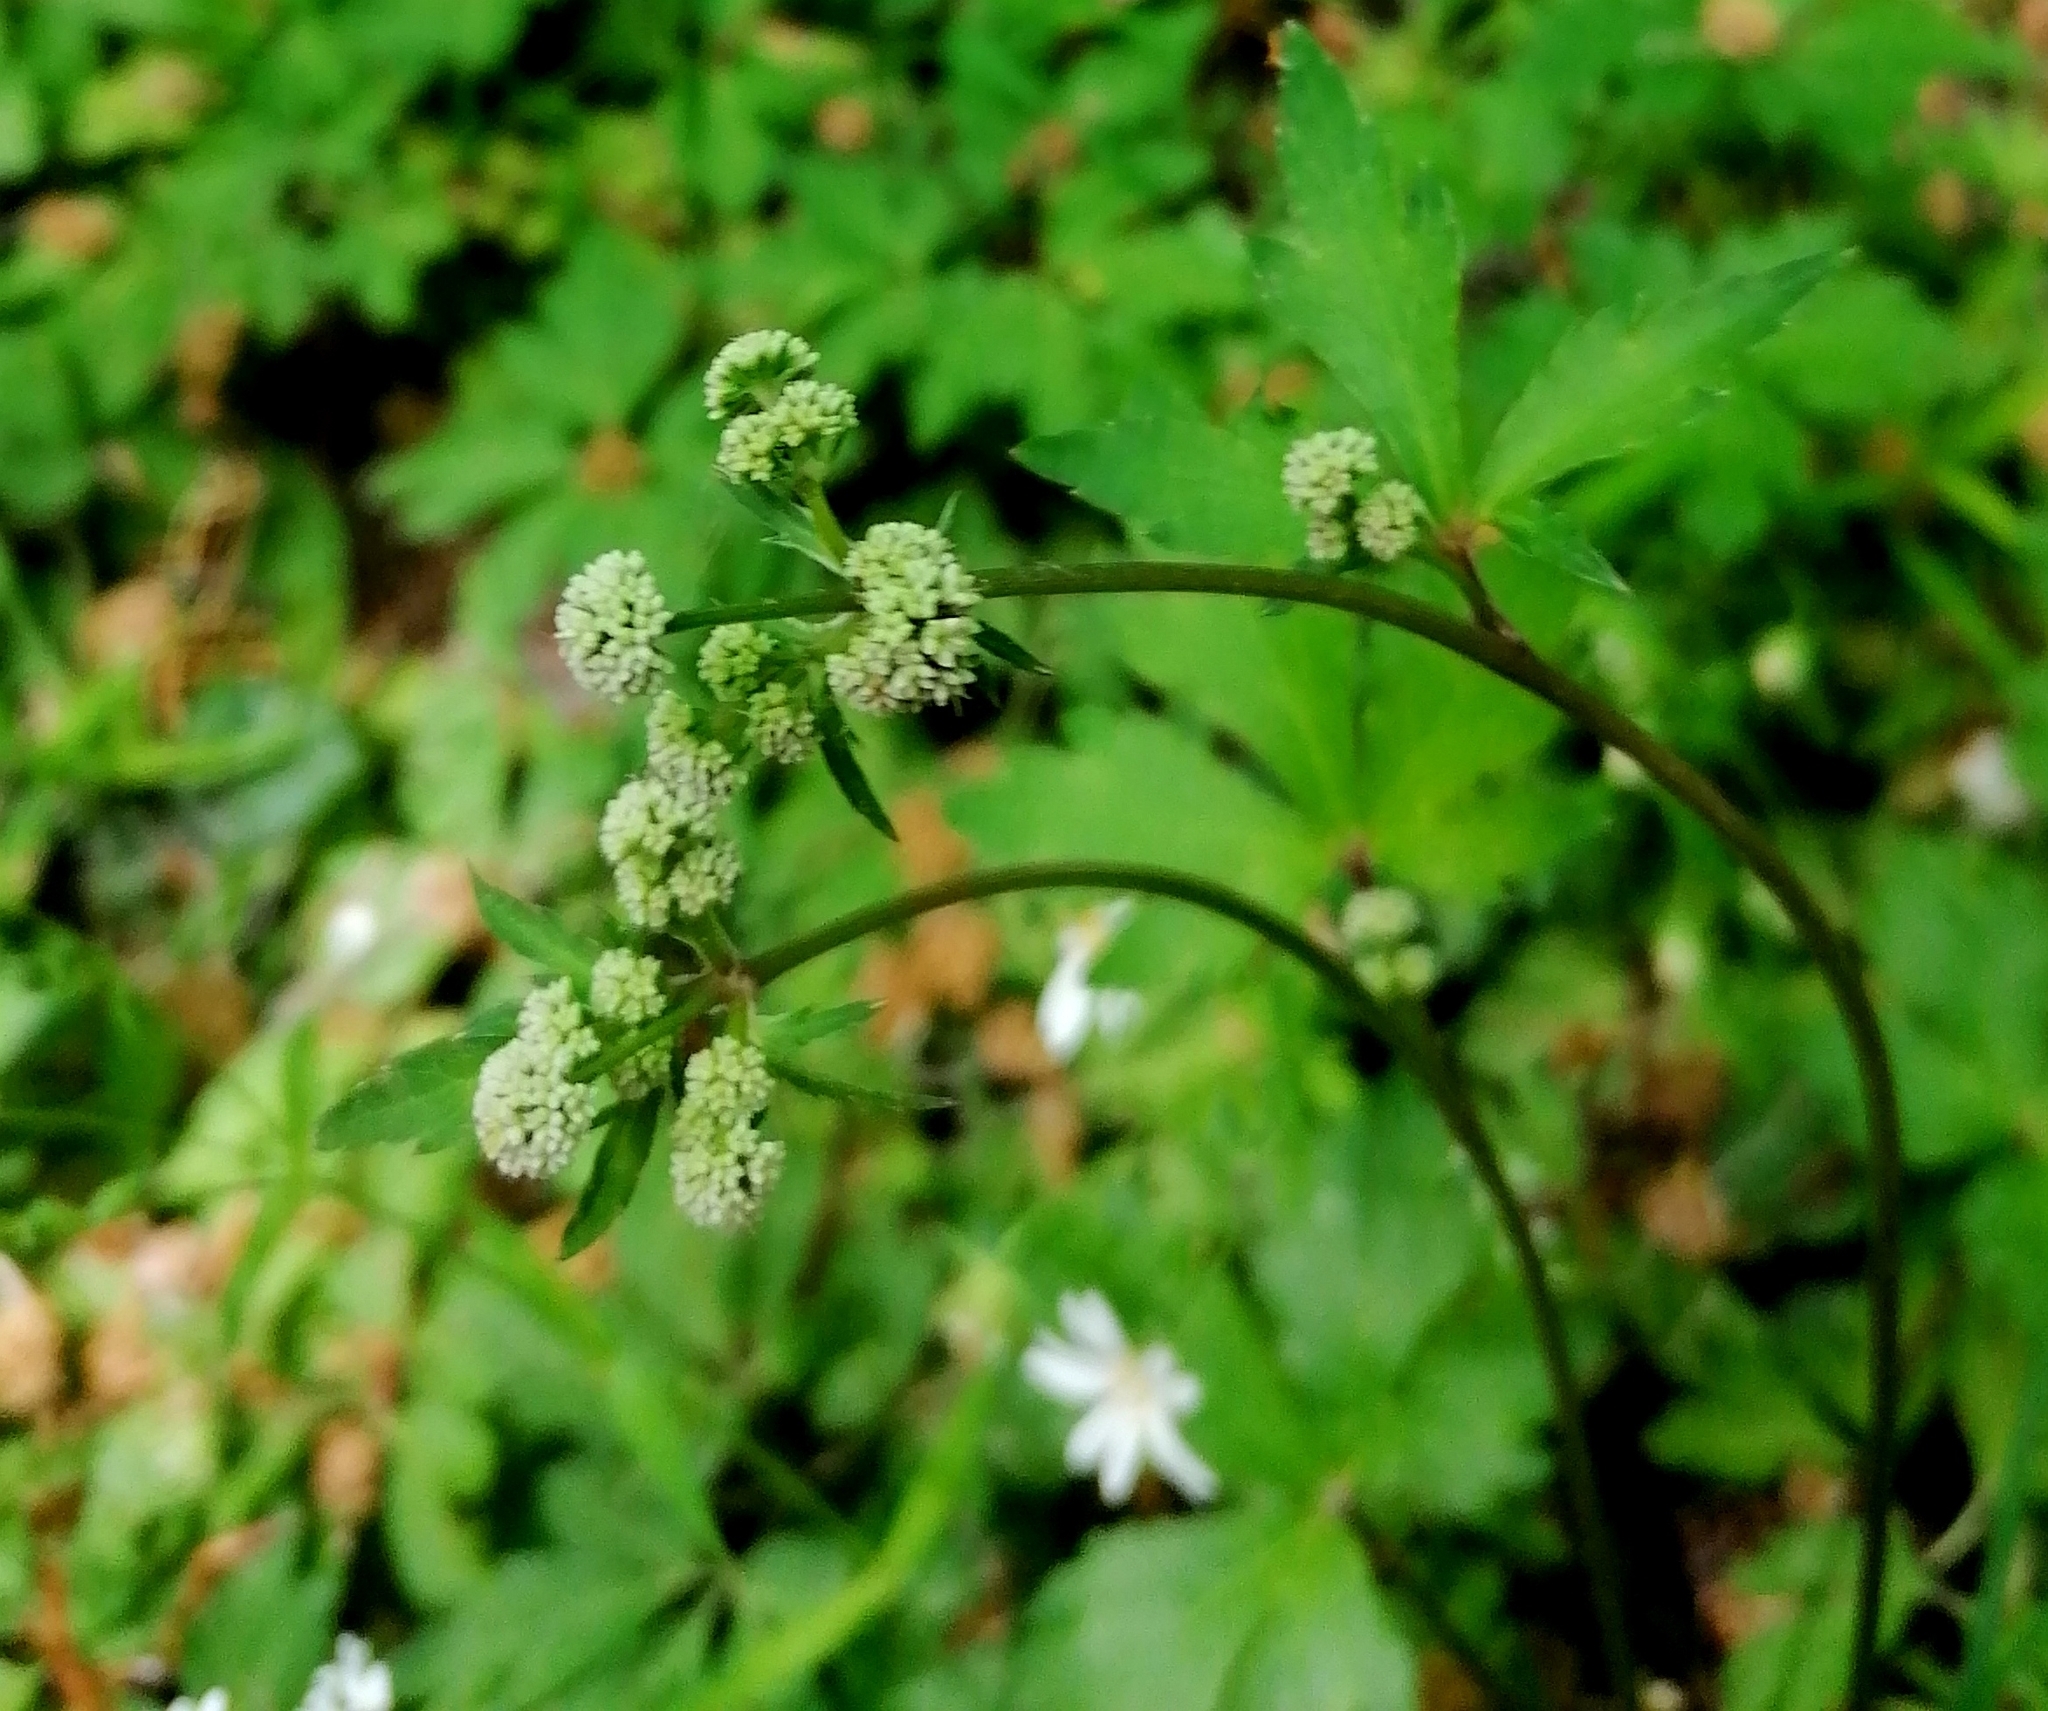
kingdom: Plantae
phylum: Tracheophyta
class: Magnoliopsida
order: Apiales
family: Apiaceae
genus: Sanicula
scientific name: Sanicula europaea
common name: Sanicle
